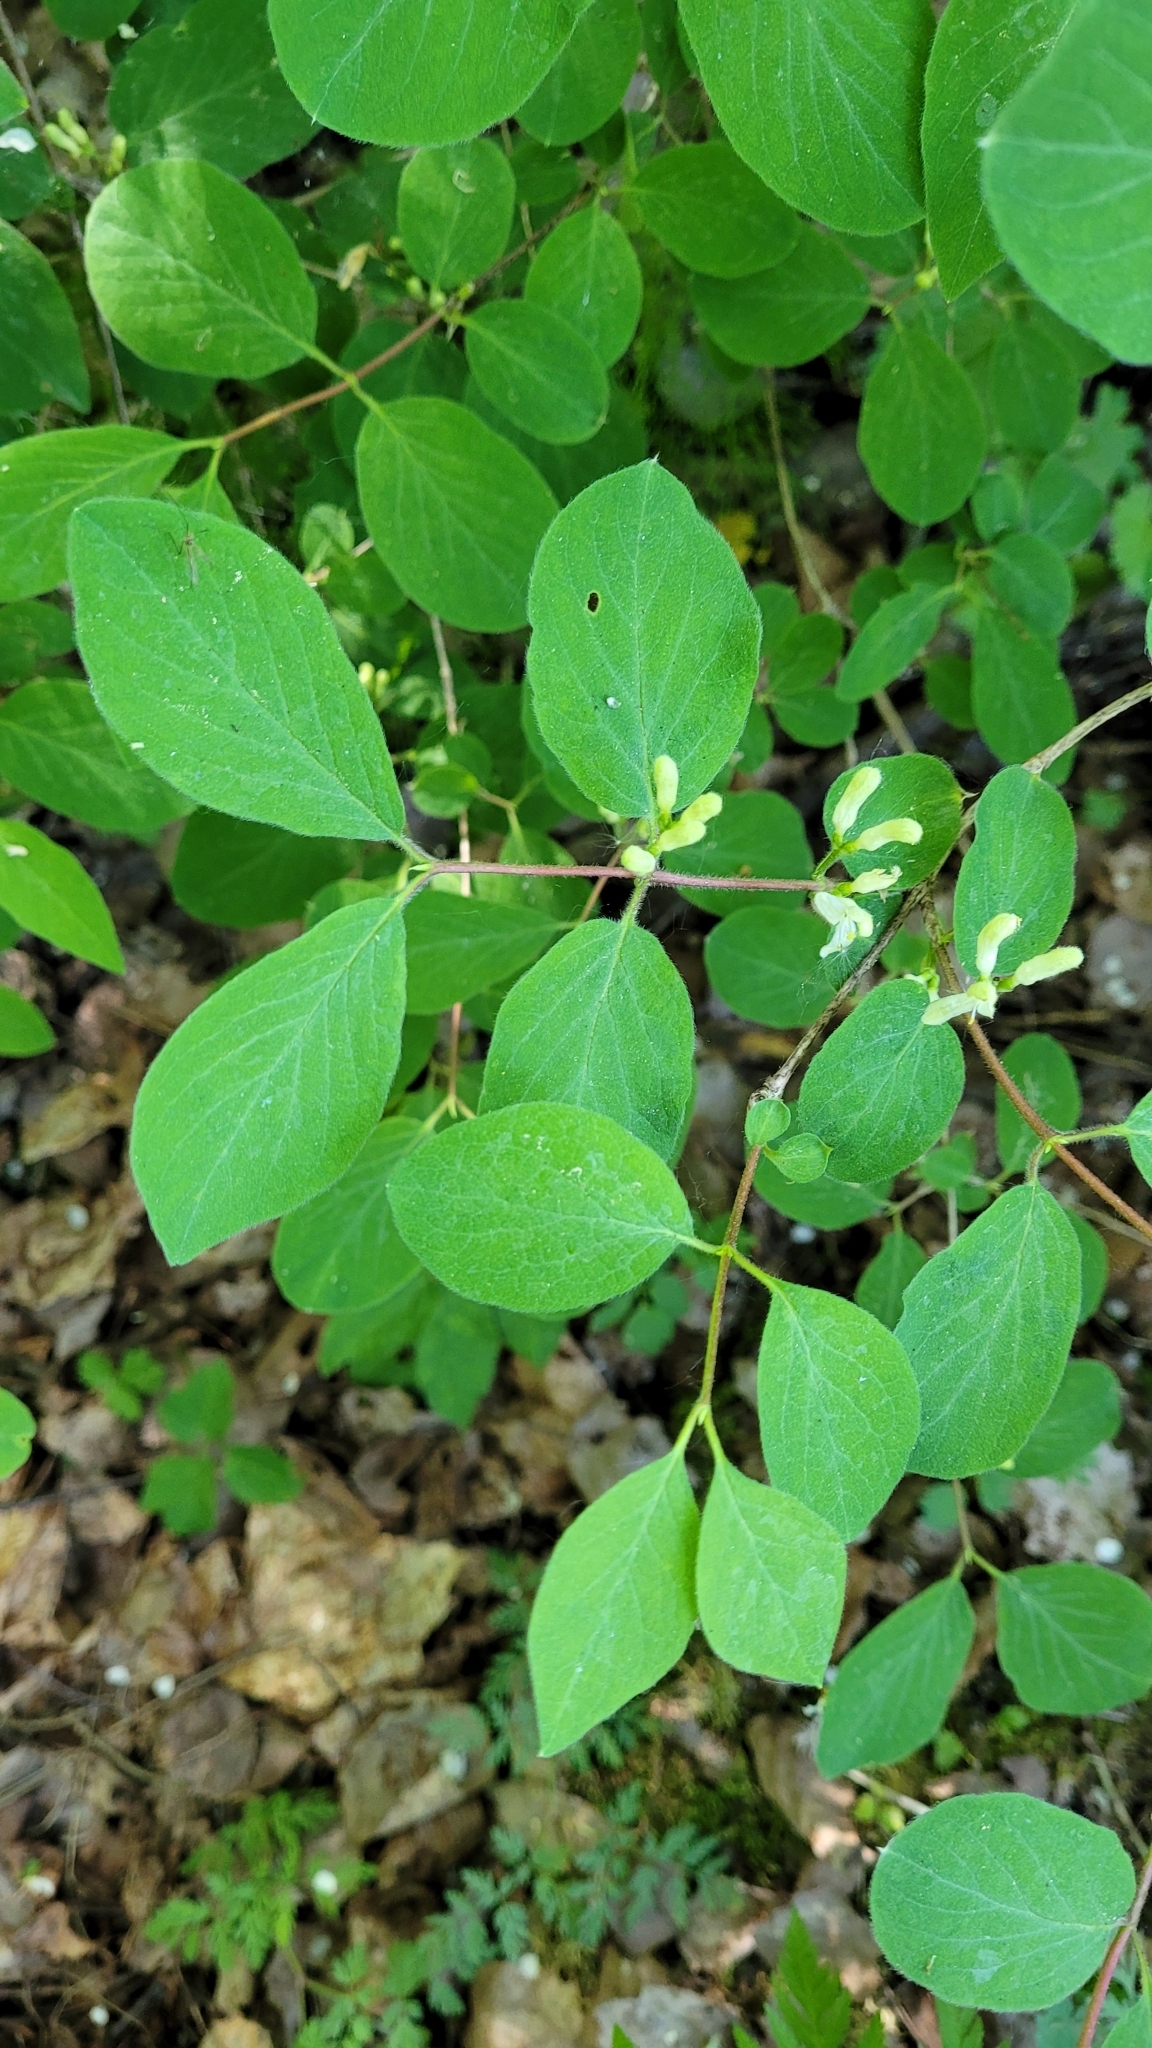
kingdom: Plantae
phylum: Tracheophyta
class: Magnoliopsida
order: Dipsacales
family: Caprifoliaceae
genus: Lonicera
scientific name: Lonicera xylosteum
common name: Fly honeysuckle
